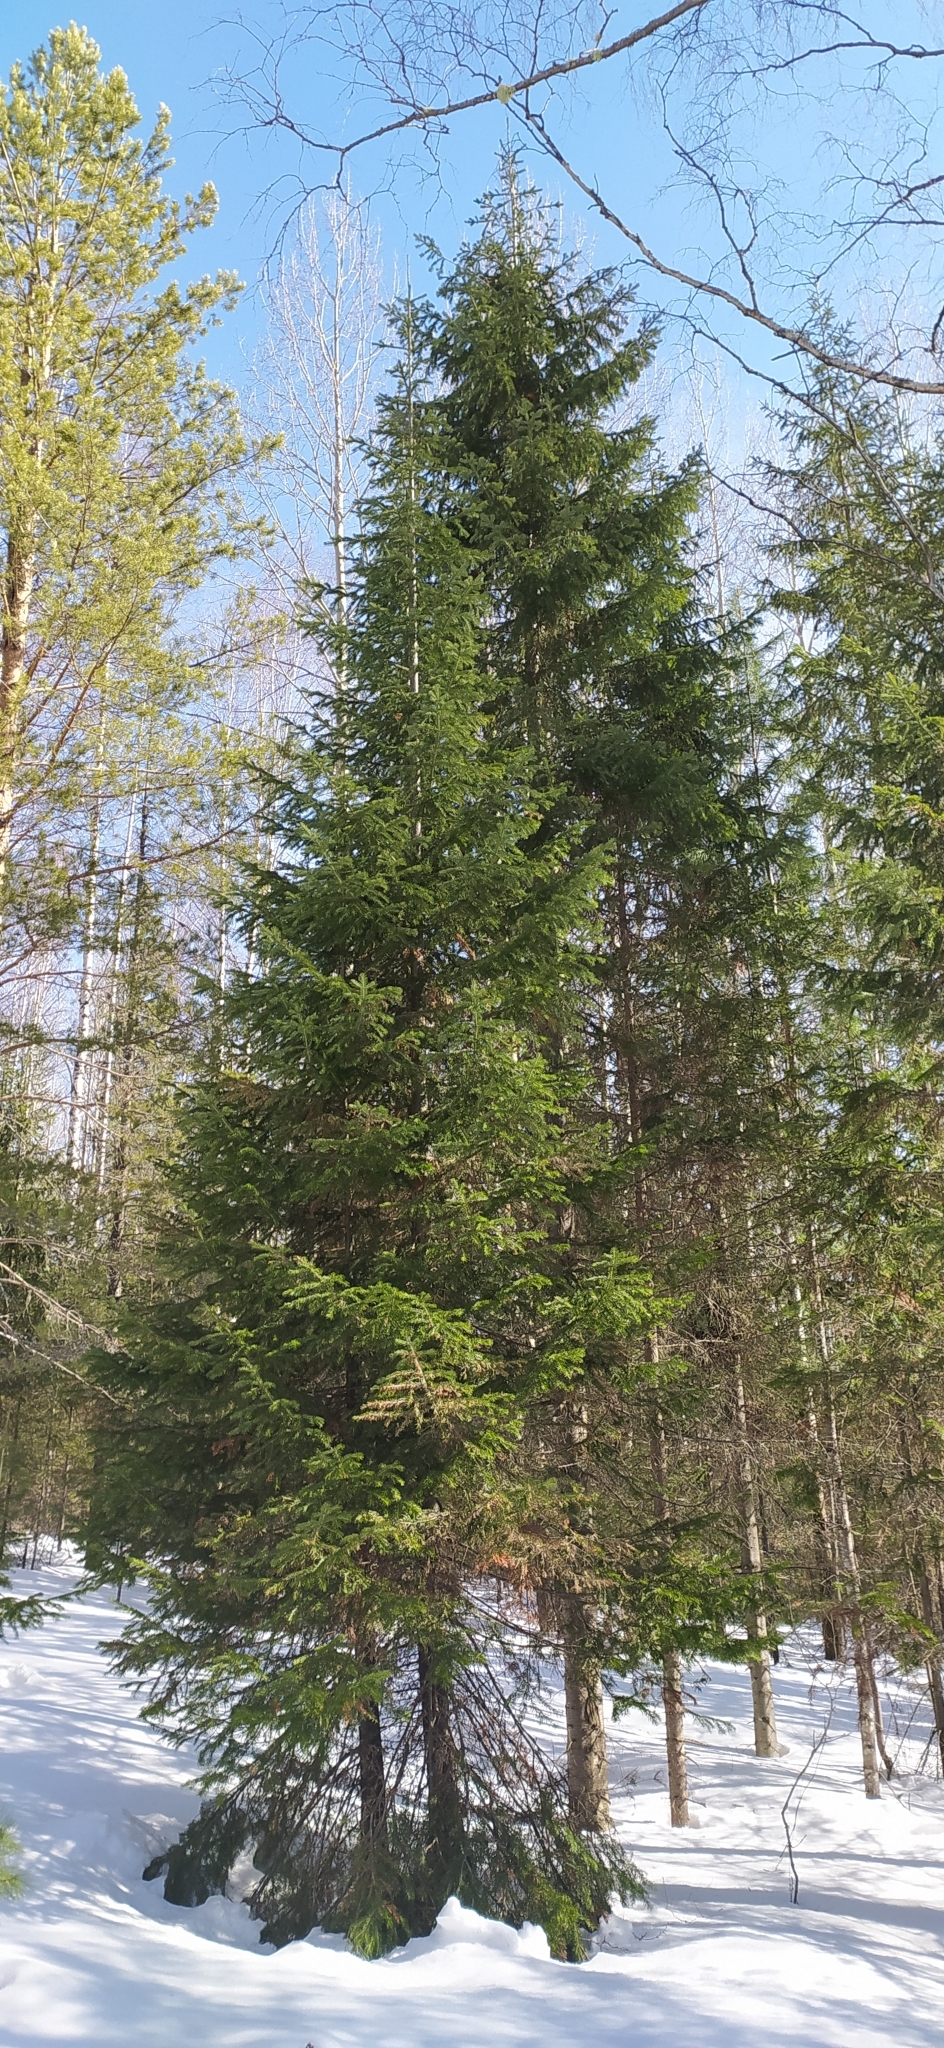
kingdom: Plantae
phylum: Tracheophyta
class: Pinopsida
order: Pinales
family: Pinaceae
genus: Picea
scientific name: Picea obovata
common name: Siberian spruce
